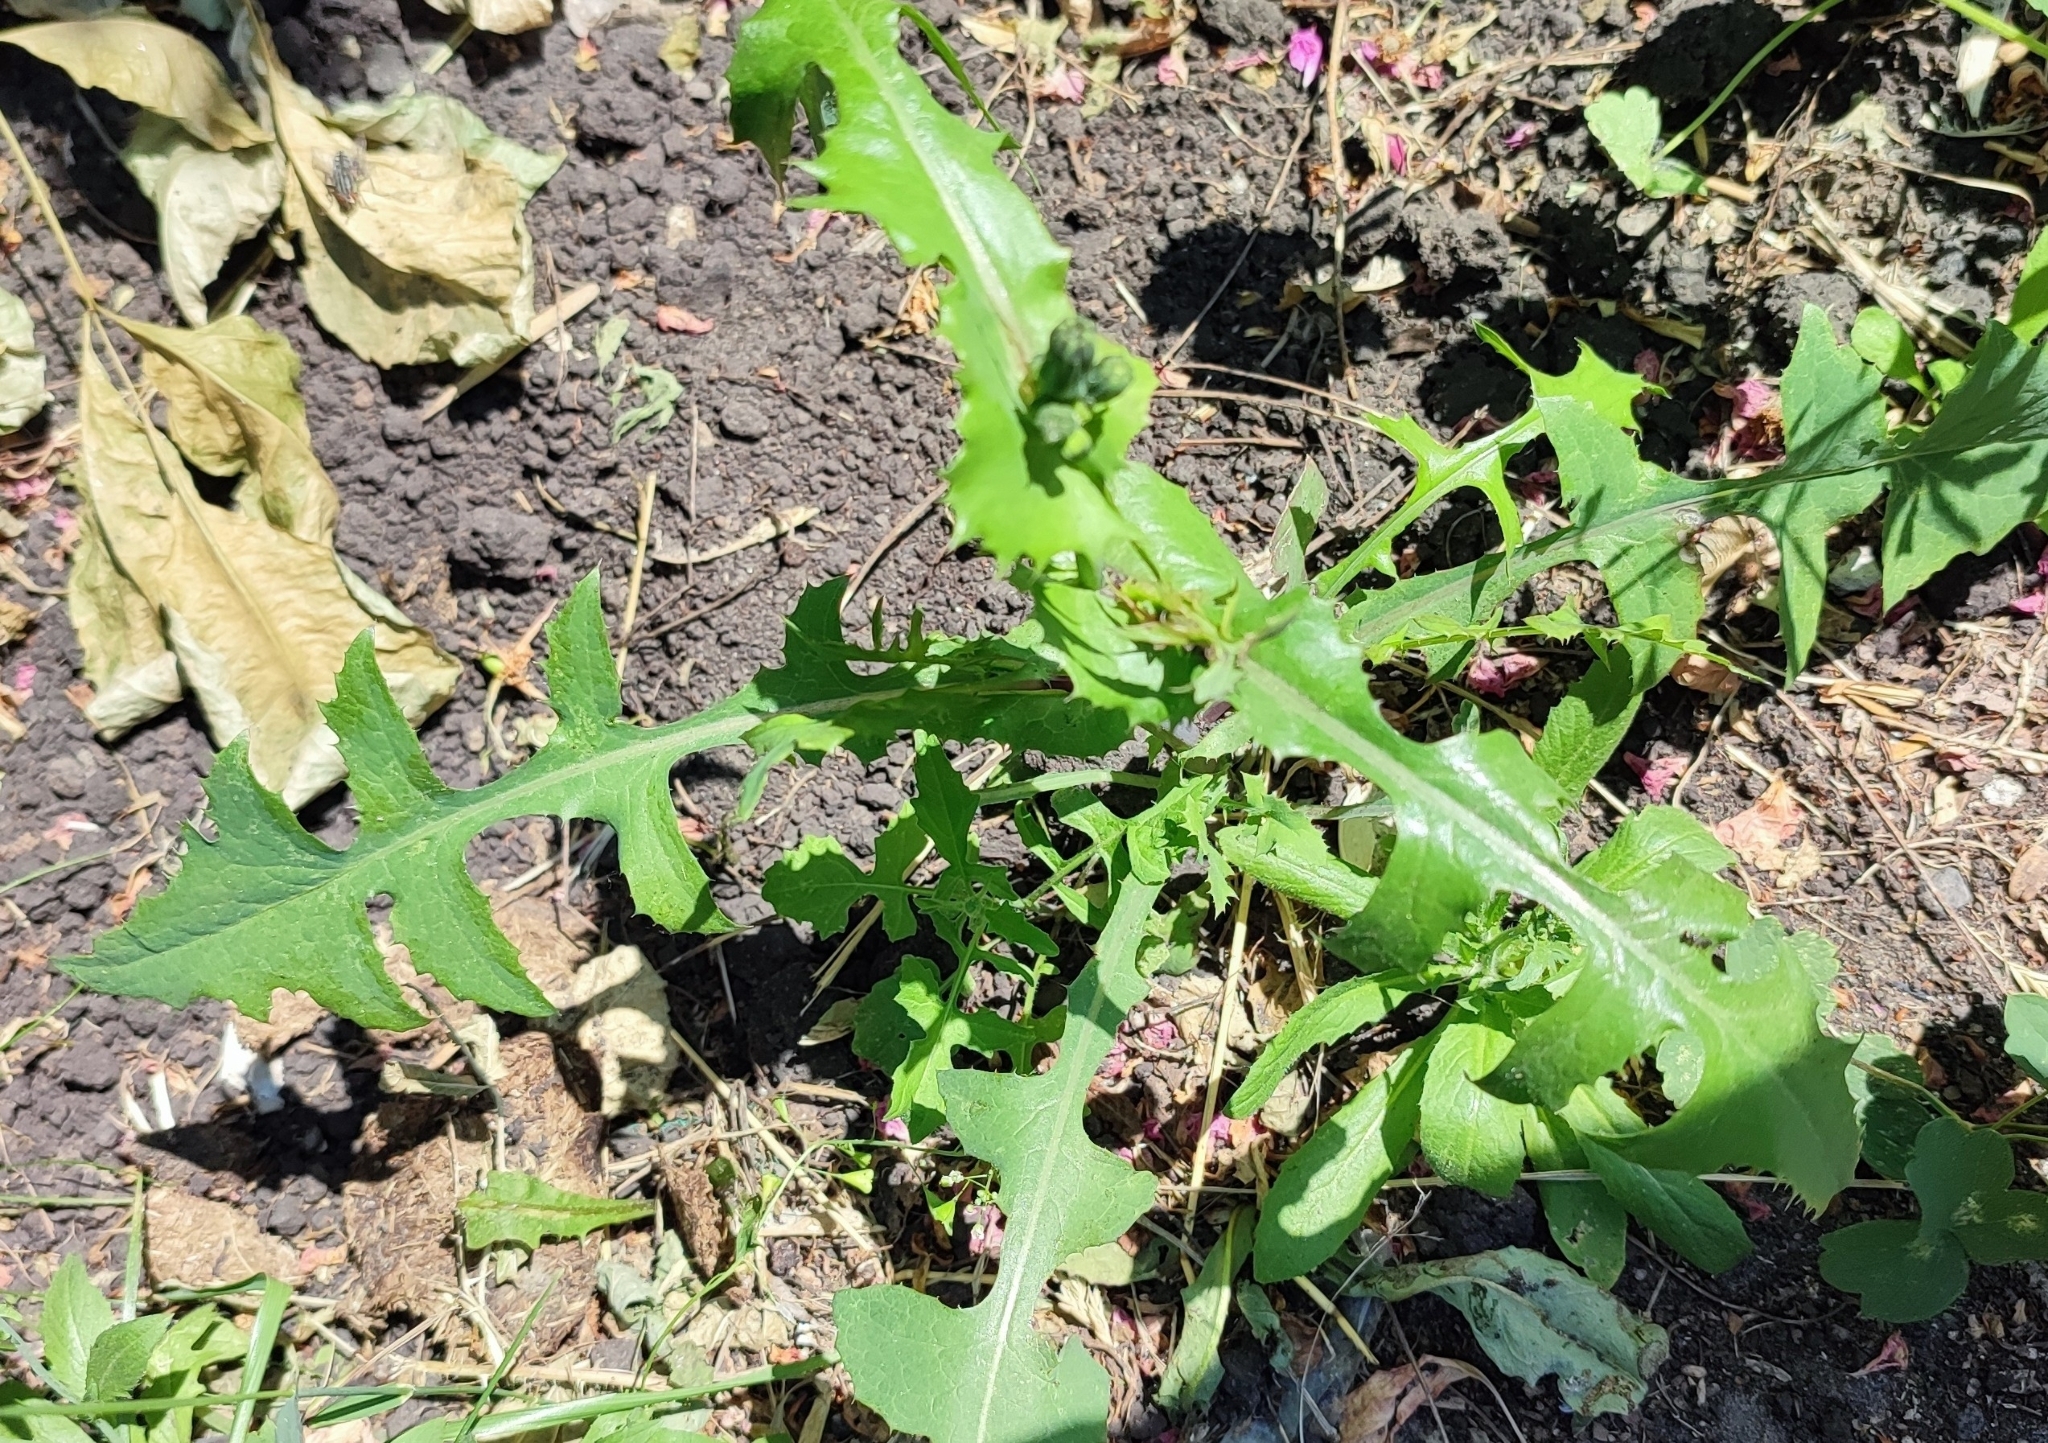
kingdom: Plantae
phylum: Tracheophyta
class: Magnoliopsida
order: Asterales
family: Asteraceae
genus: Sonchus
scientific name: Sonchus oleraceus
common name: Common sowthistle
